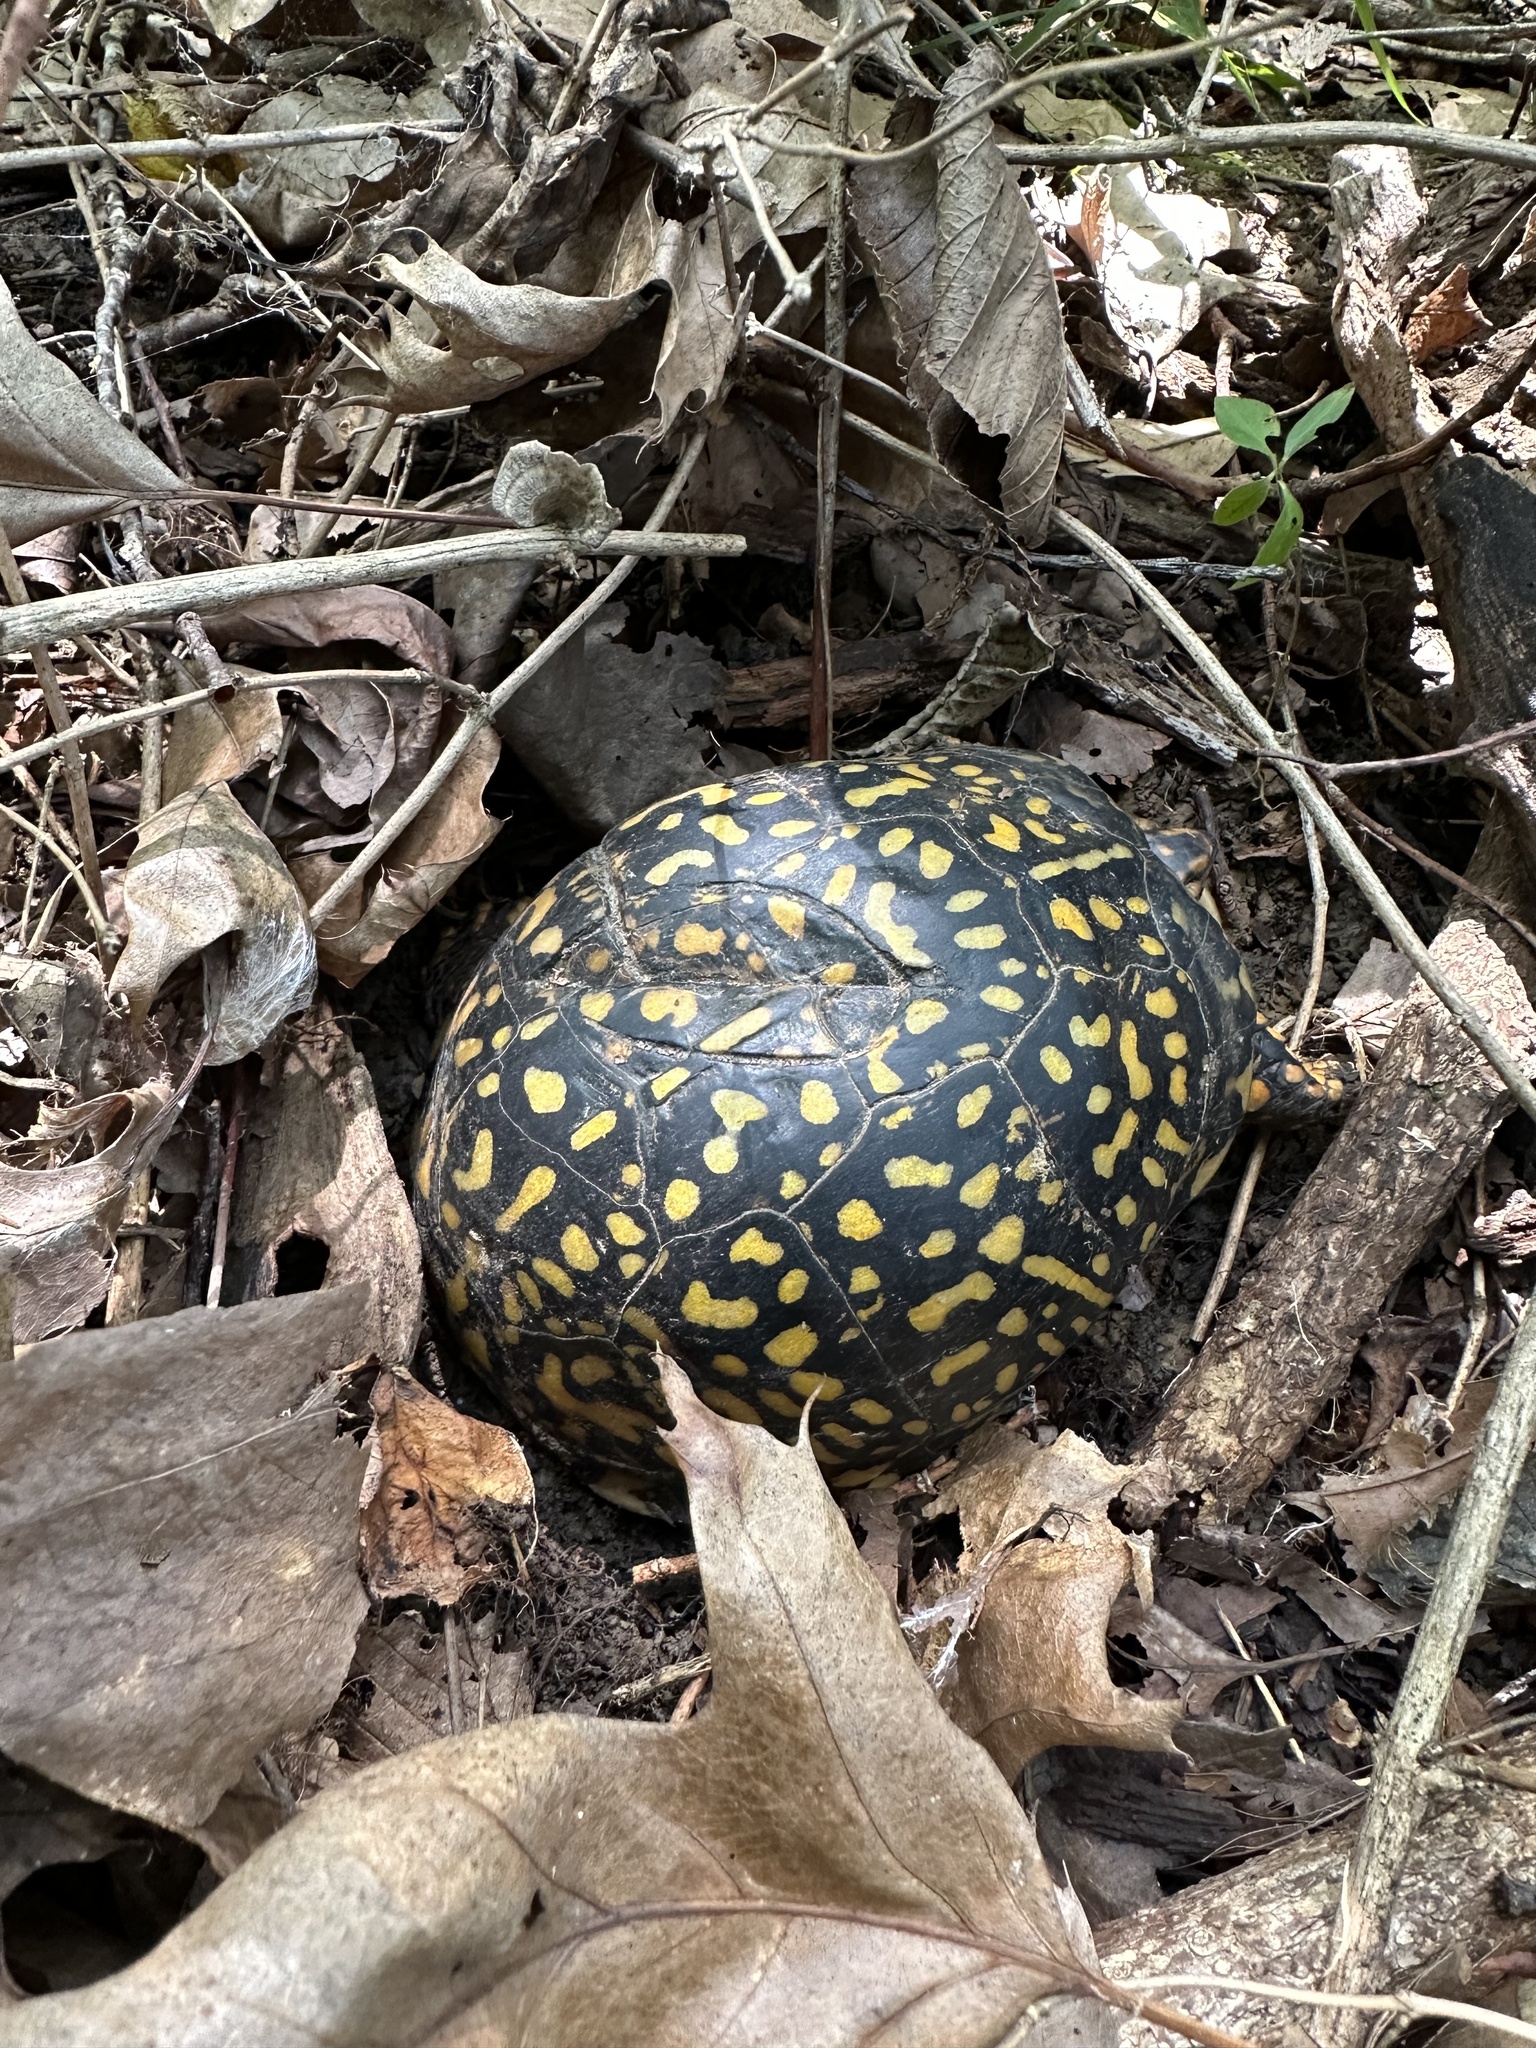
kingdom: Animalia
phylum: Chordata
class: Testudines
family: Emydidae
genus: Terrapene
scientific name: Terrapene carolina
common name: Common box turtle
